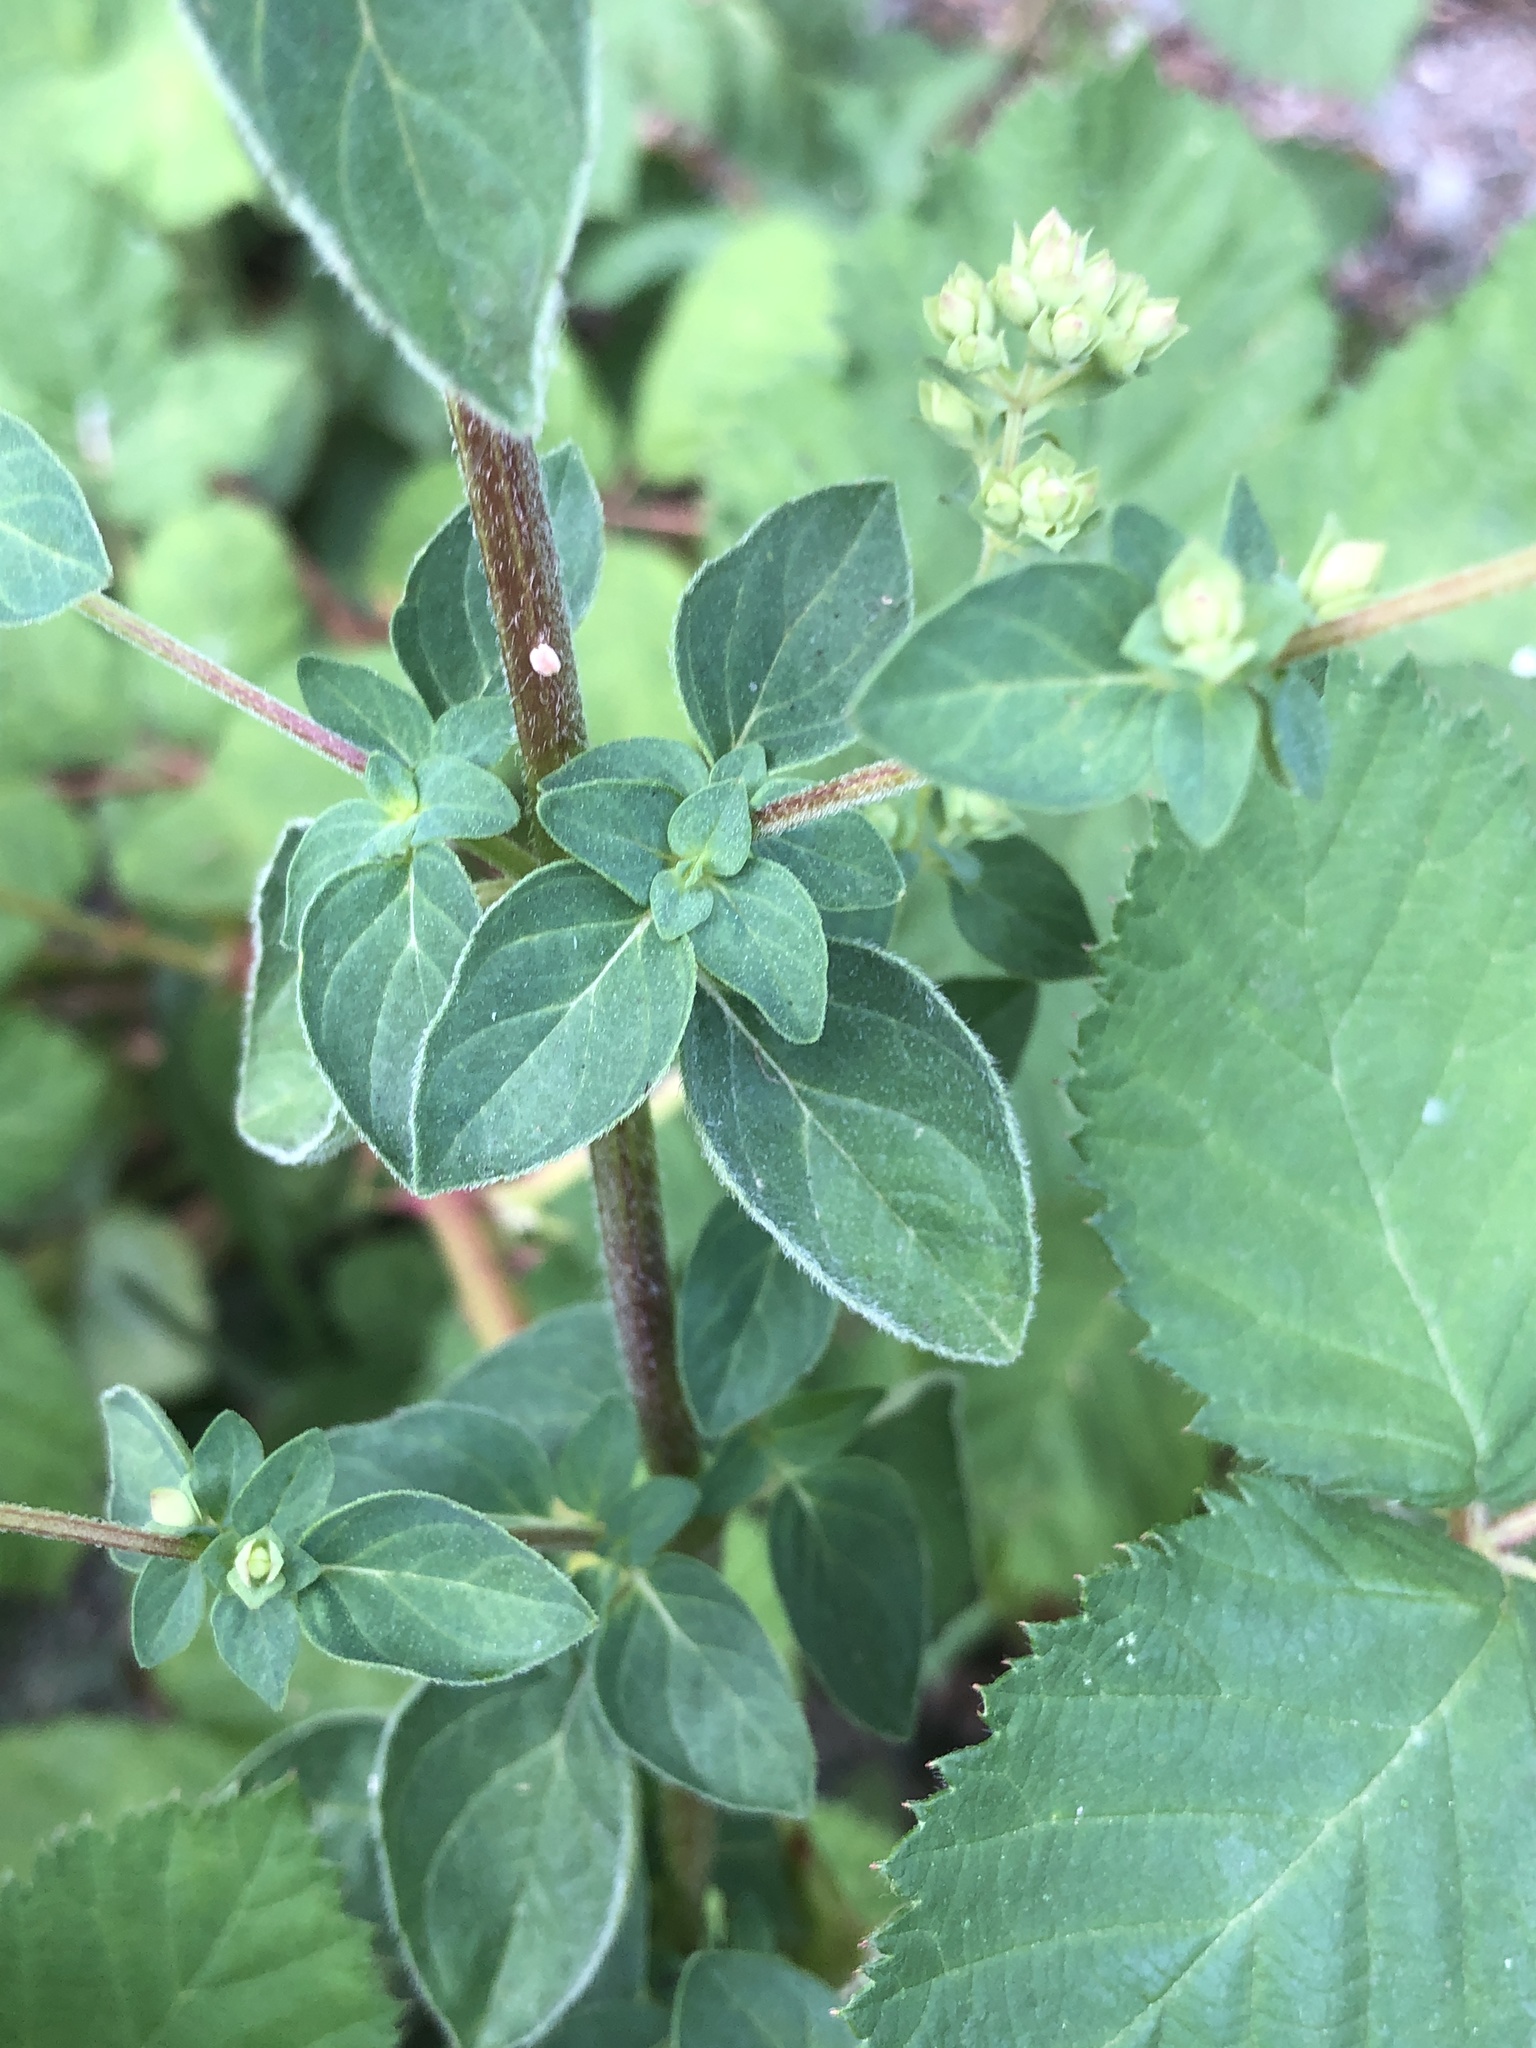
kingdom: Plantae
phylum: Tracheophyta
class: Magnoliopsida
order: Lamiales
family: Lamiaceae
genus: Origanum
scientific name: Origanum vulgare
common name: Wild marjoram
